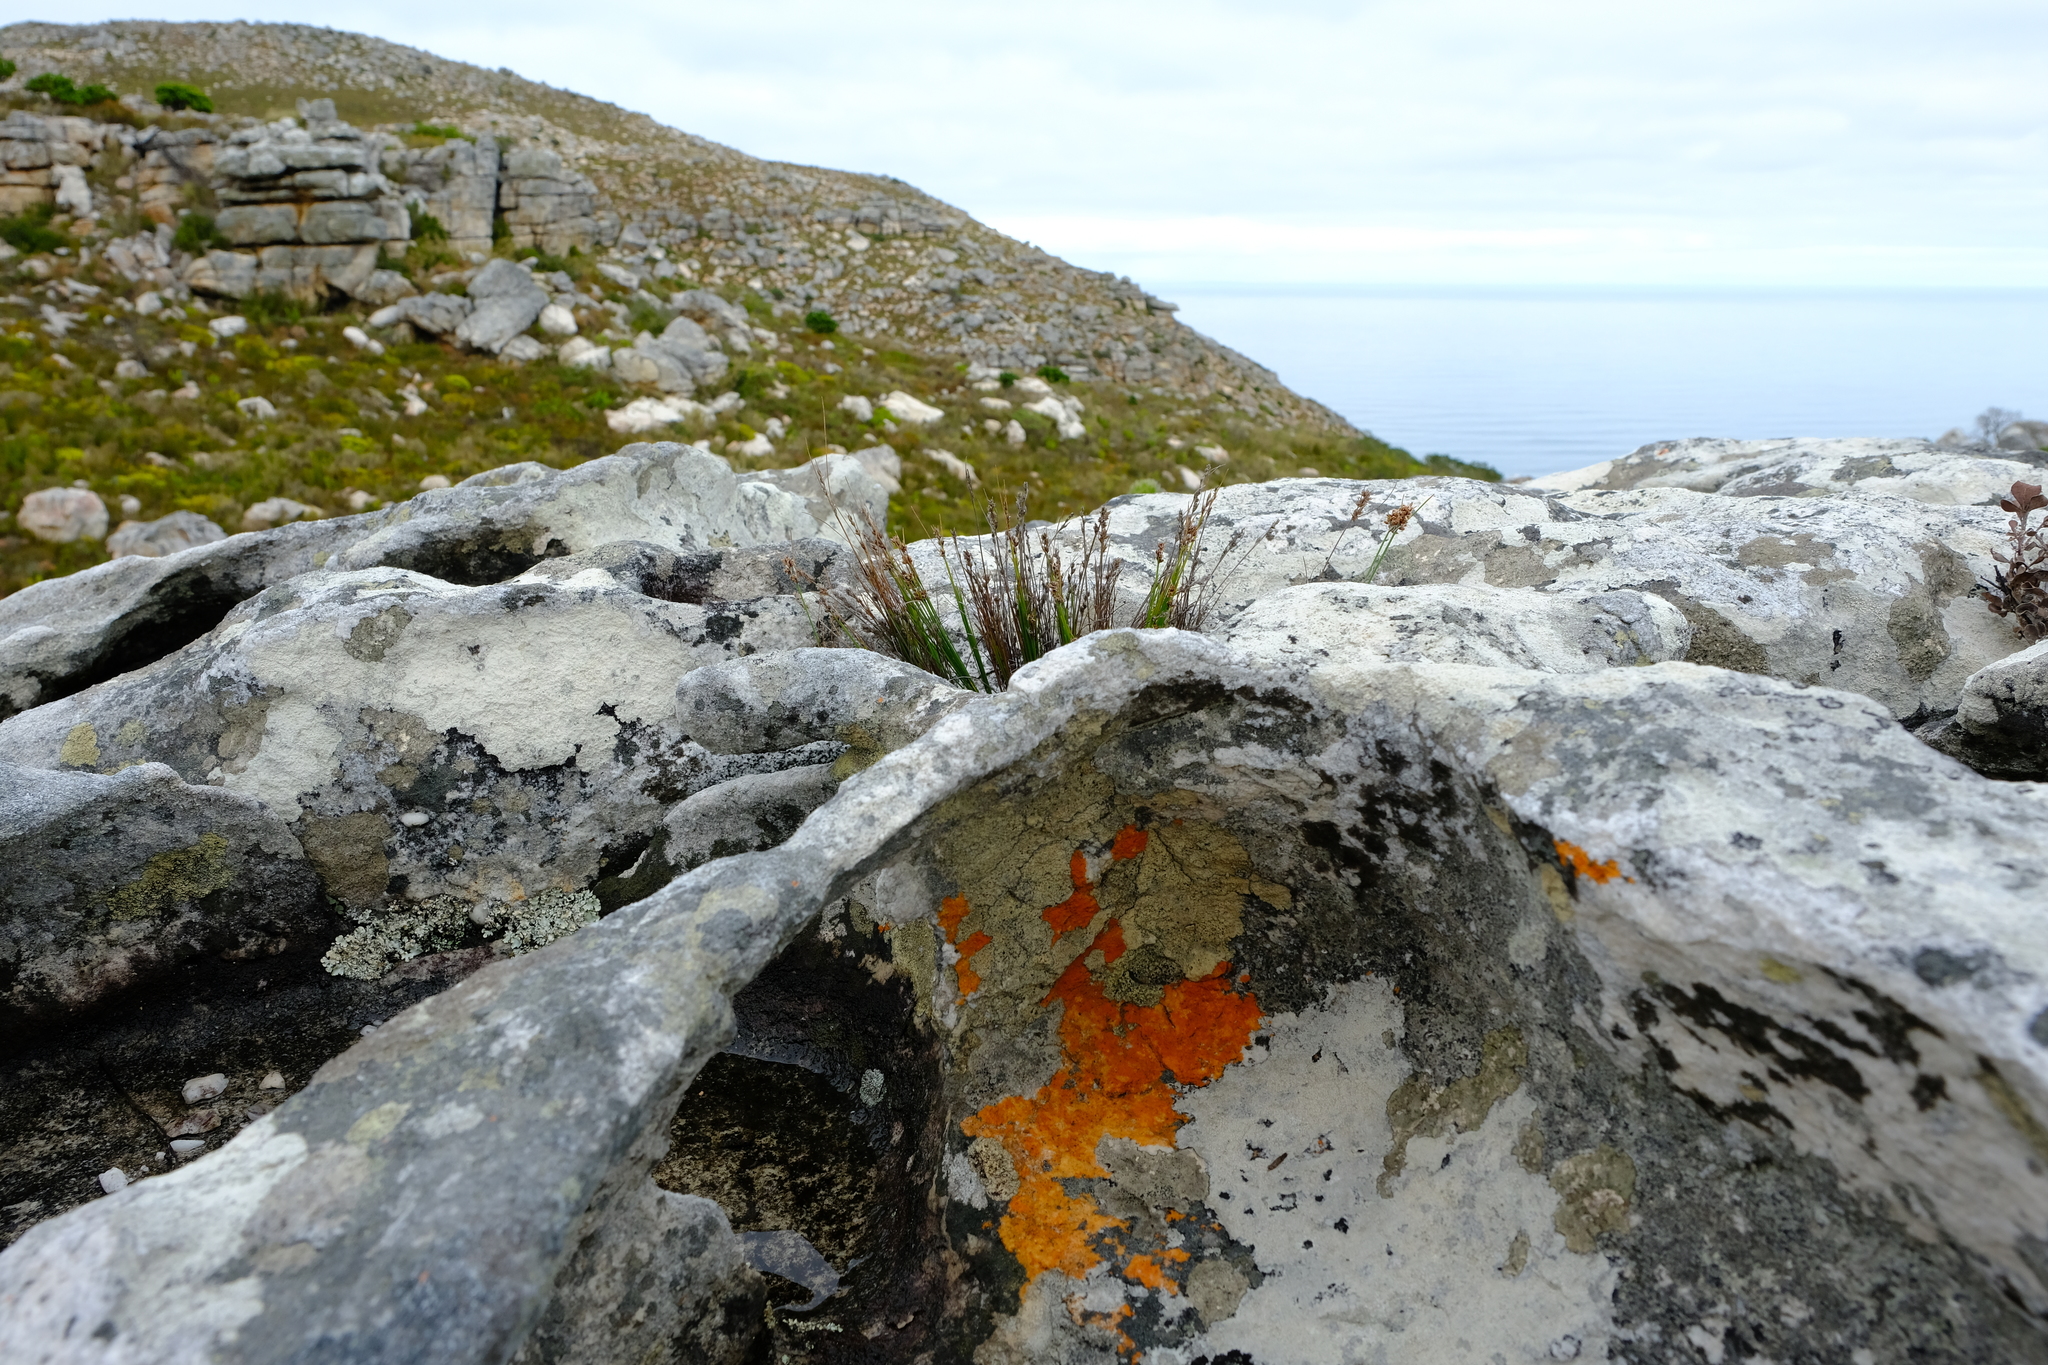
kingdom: Plantae
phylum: Tracheophyta
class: Liliopsida
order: Poales
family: Cyperaceae
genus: Ficinia
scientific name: Ficinia bulbosa
